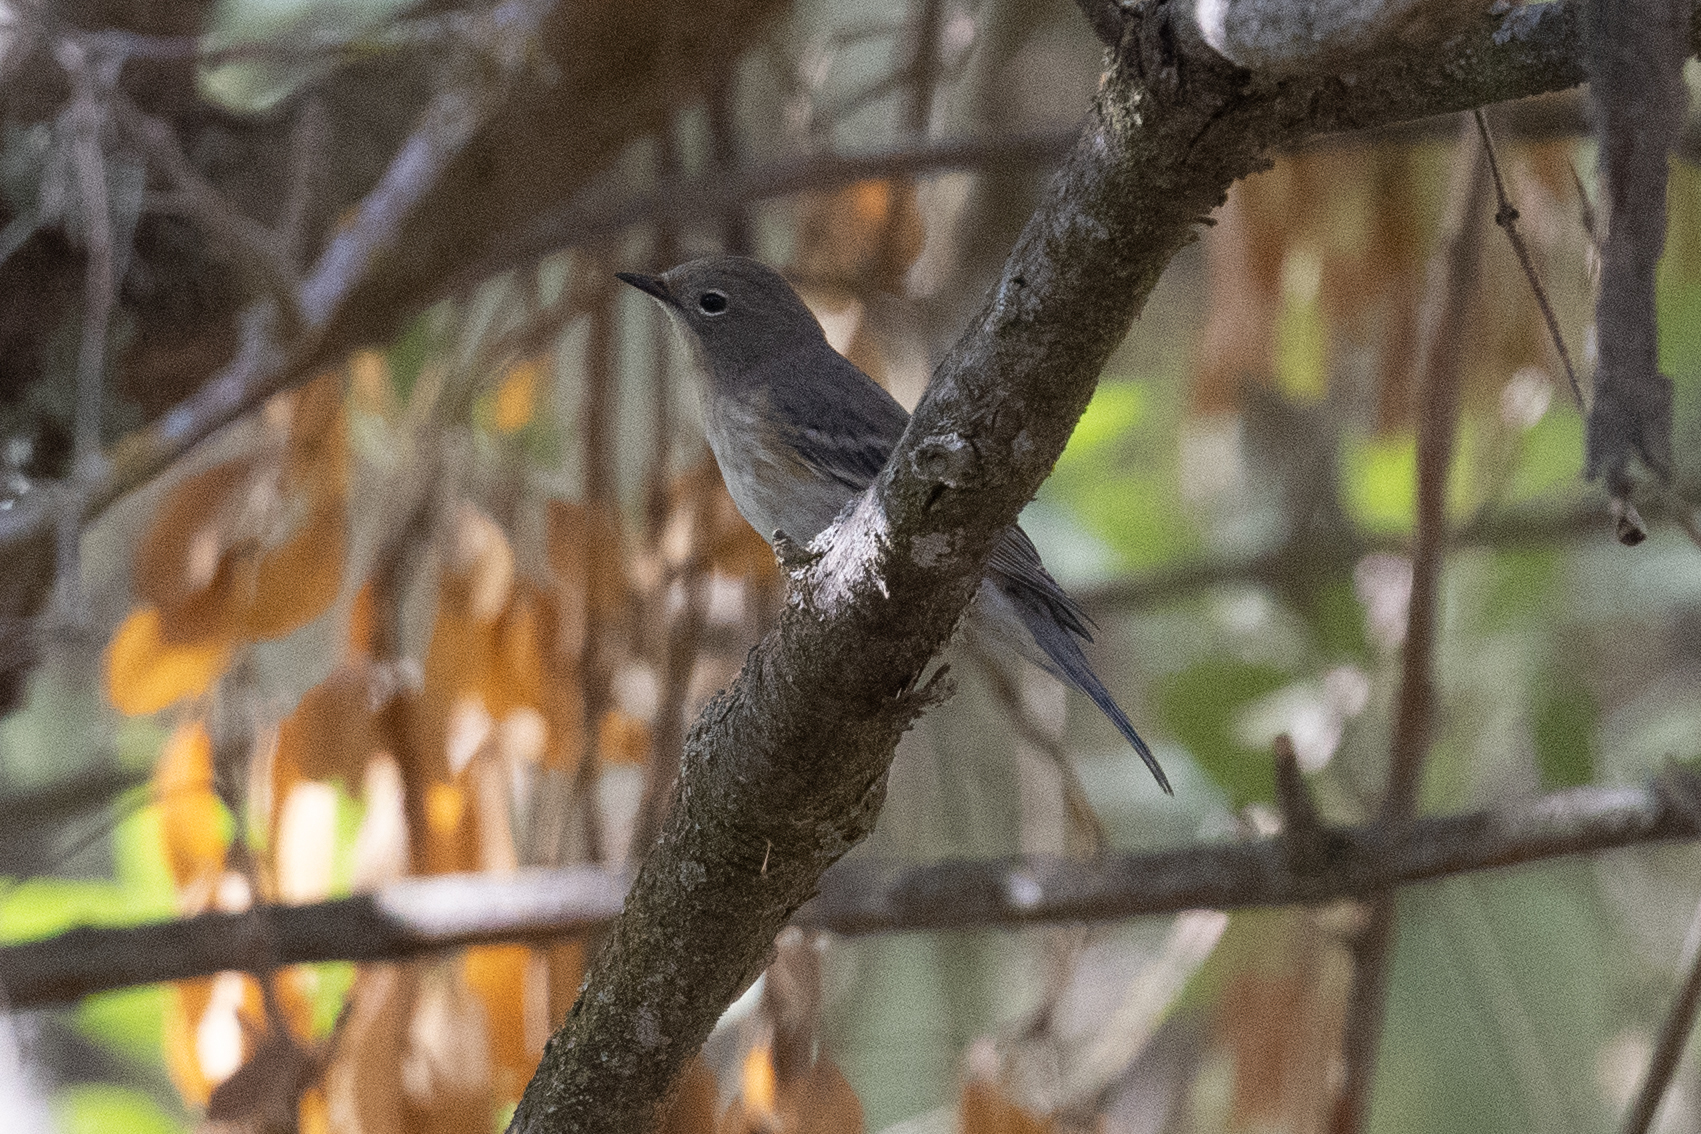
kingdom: Animalia
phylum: Chordata
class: Aves
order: Passeriformes
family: Parulidae
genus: Setophaga
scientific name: Setophaga coronata
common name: Myrtle warbler
